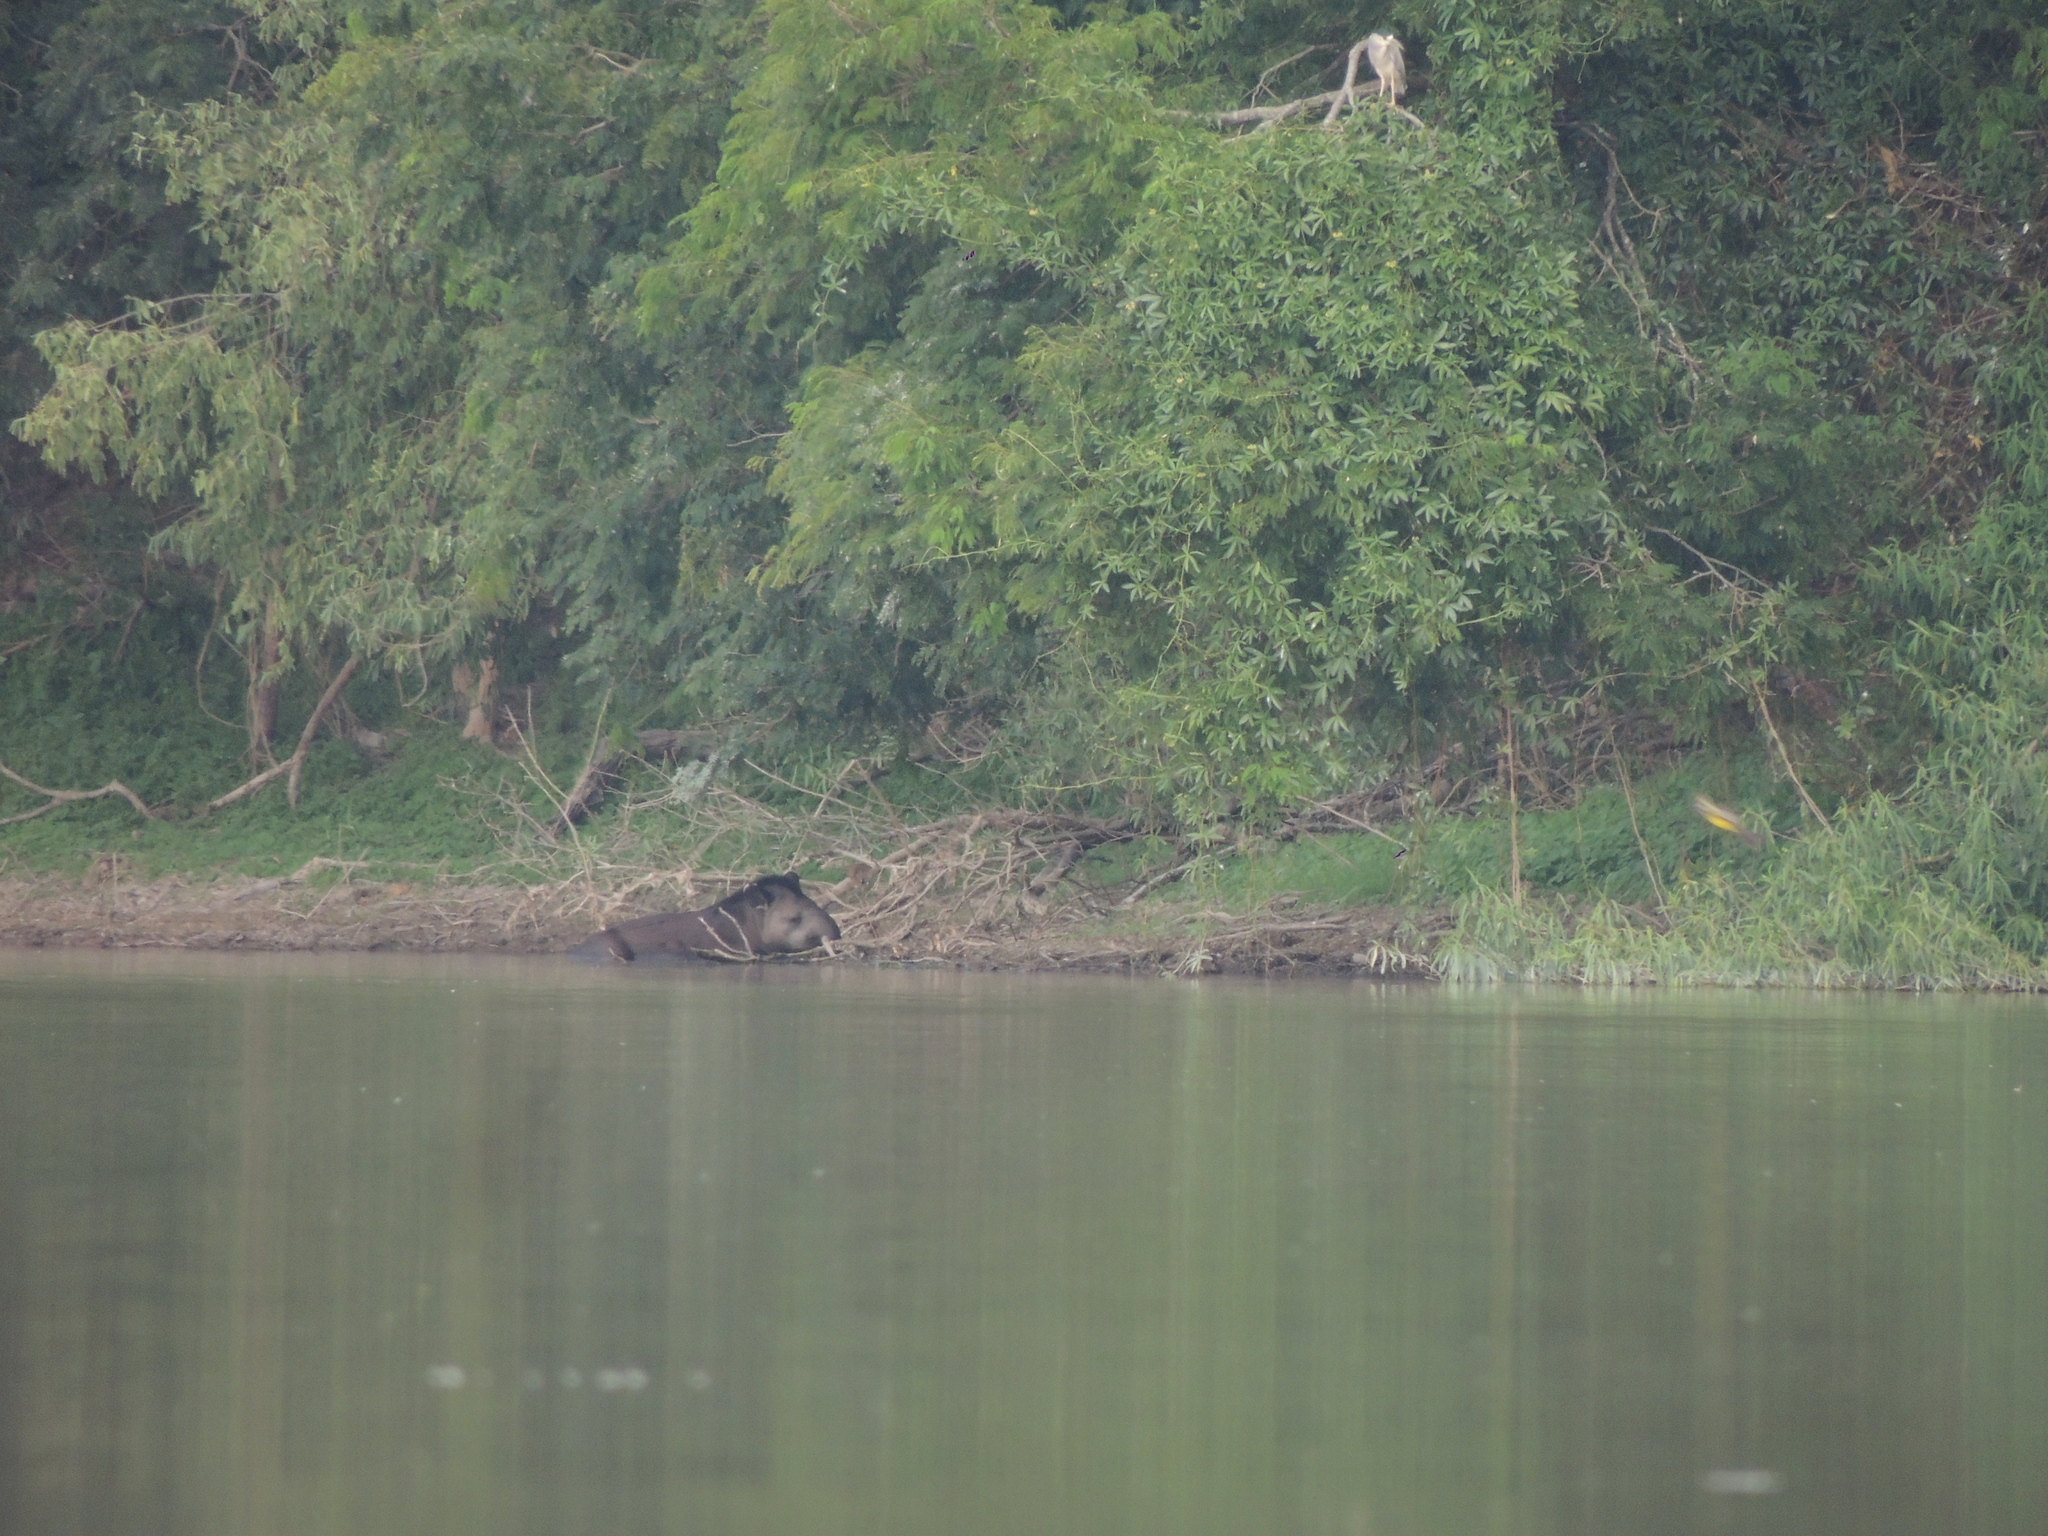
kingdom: Animalia
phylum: Chordata
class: Mammalia
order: Perissodactyla
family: Tapiridae
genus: Tapirus
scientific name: Tapirus terrestris
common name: Brazilian tapir
